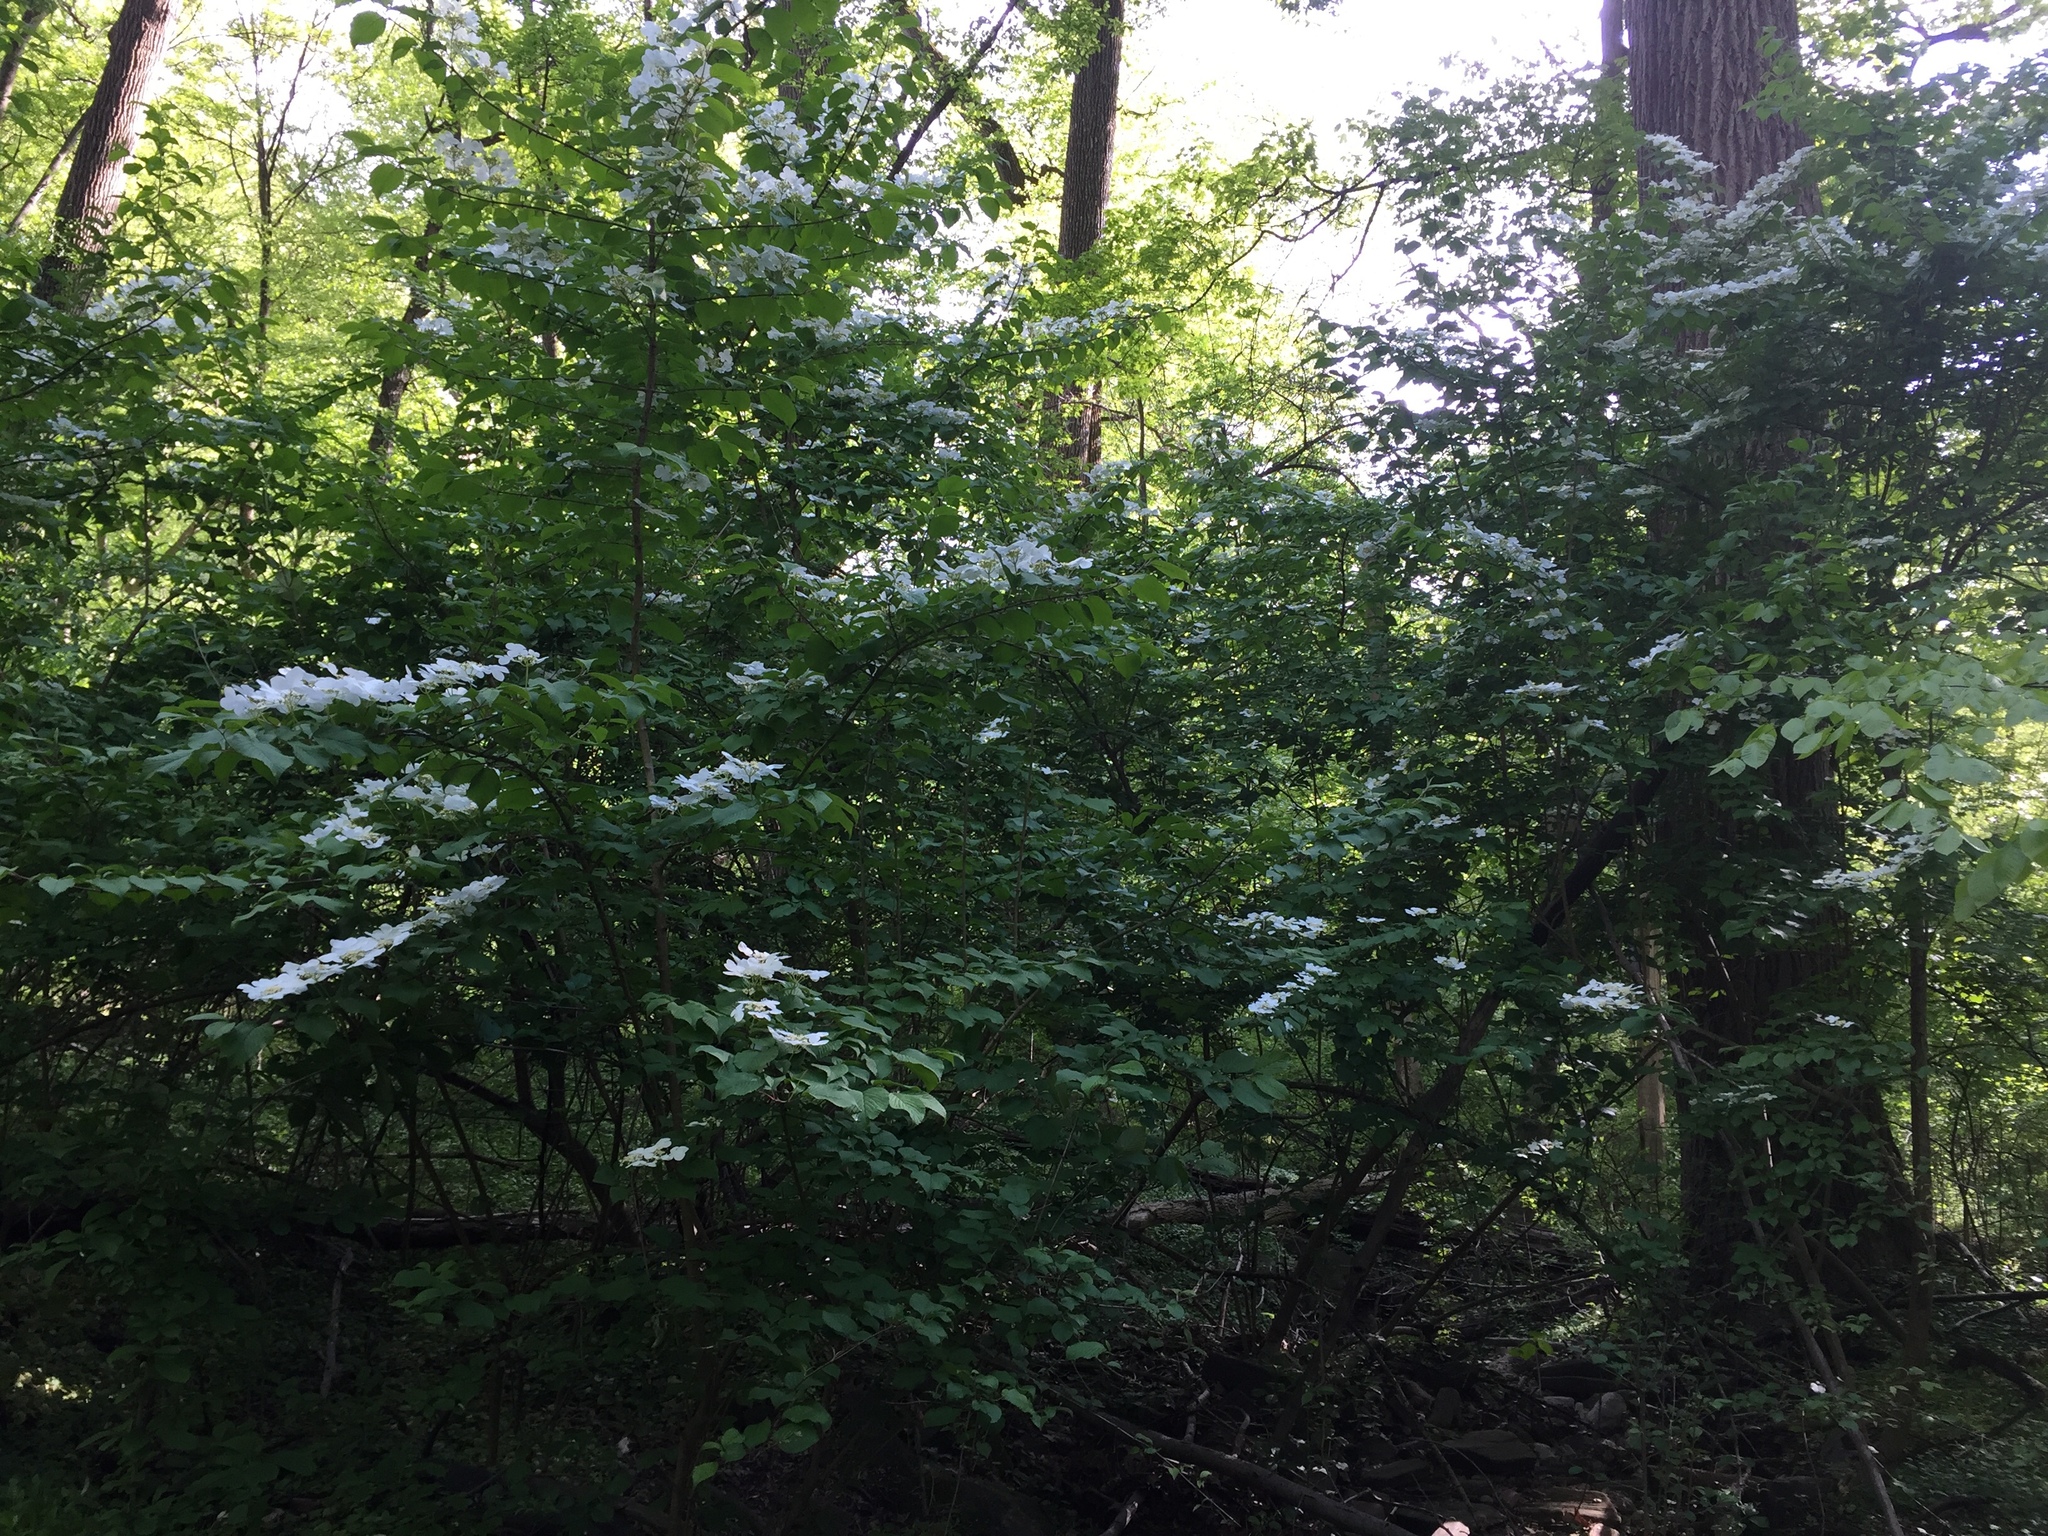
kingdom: Plantae
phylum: Tracheophyta
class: Magnoliopsida
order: Dipsacales
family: Viburnaceae
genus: Viburnum
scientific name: Viburnum plicatum
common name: Japanese snowball
